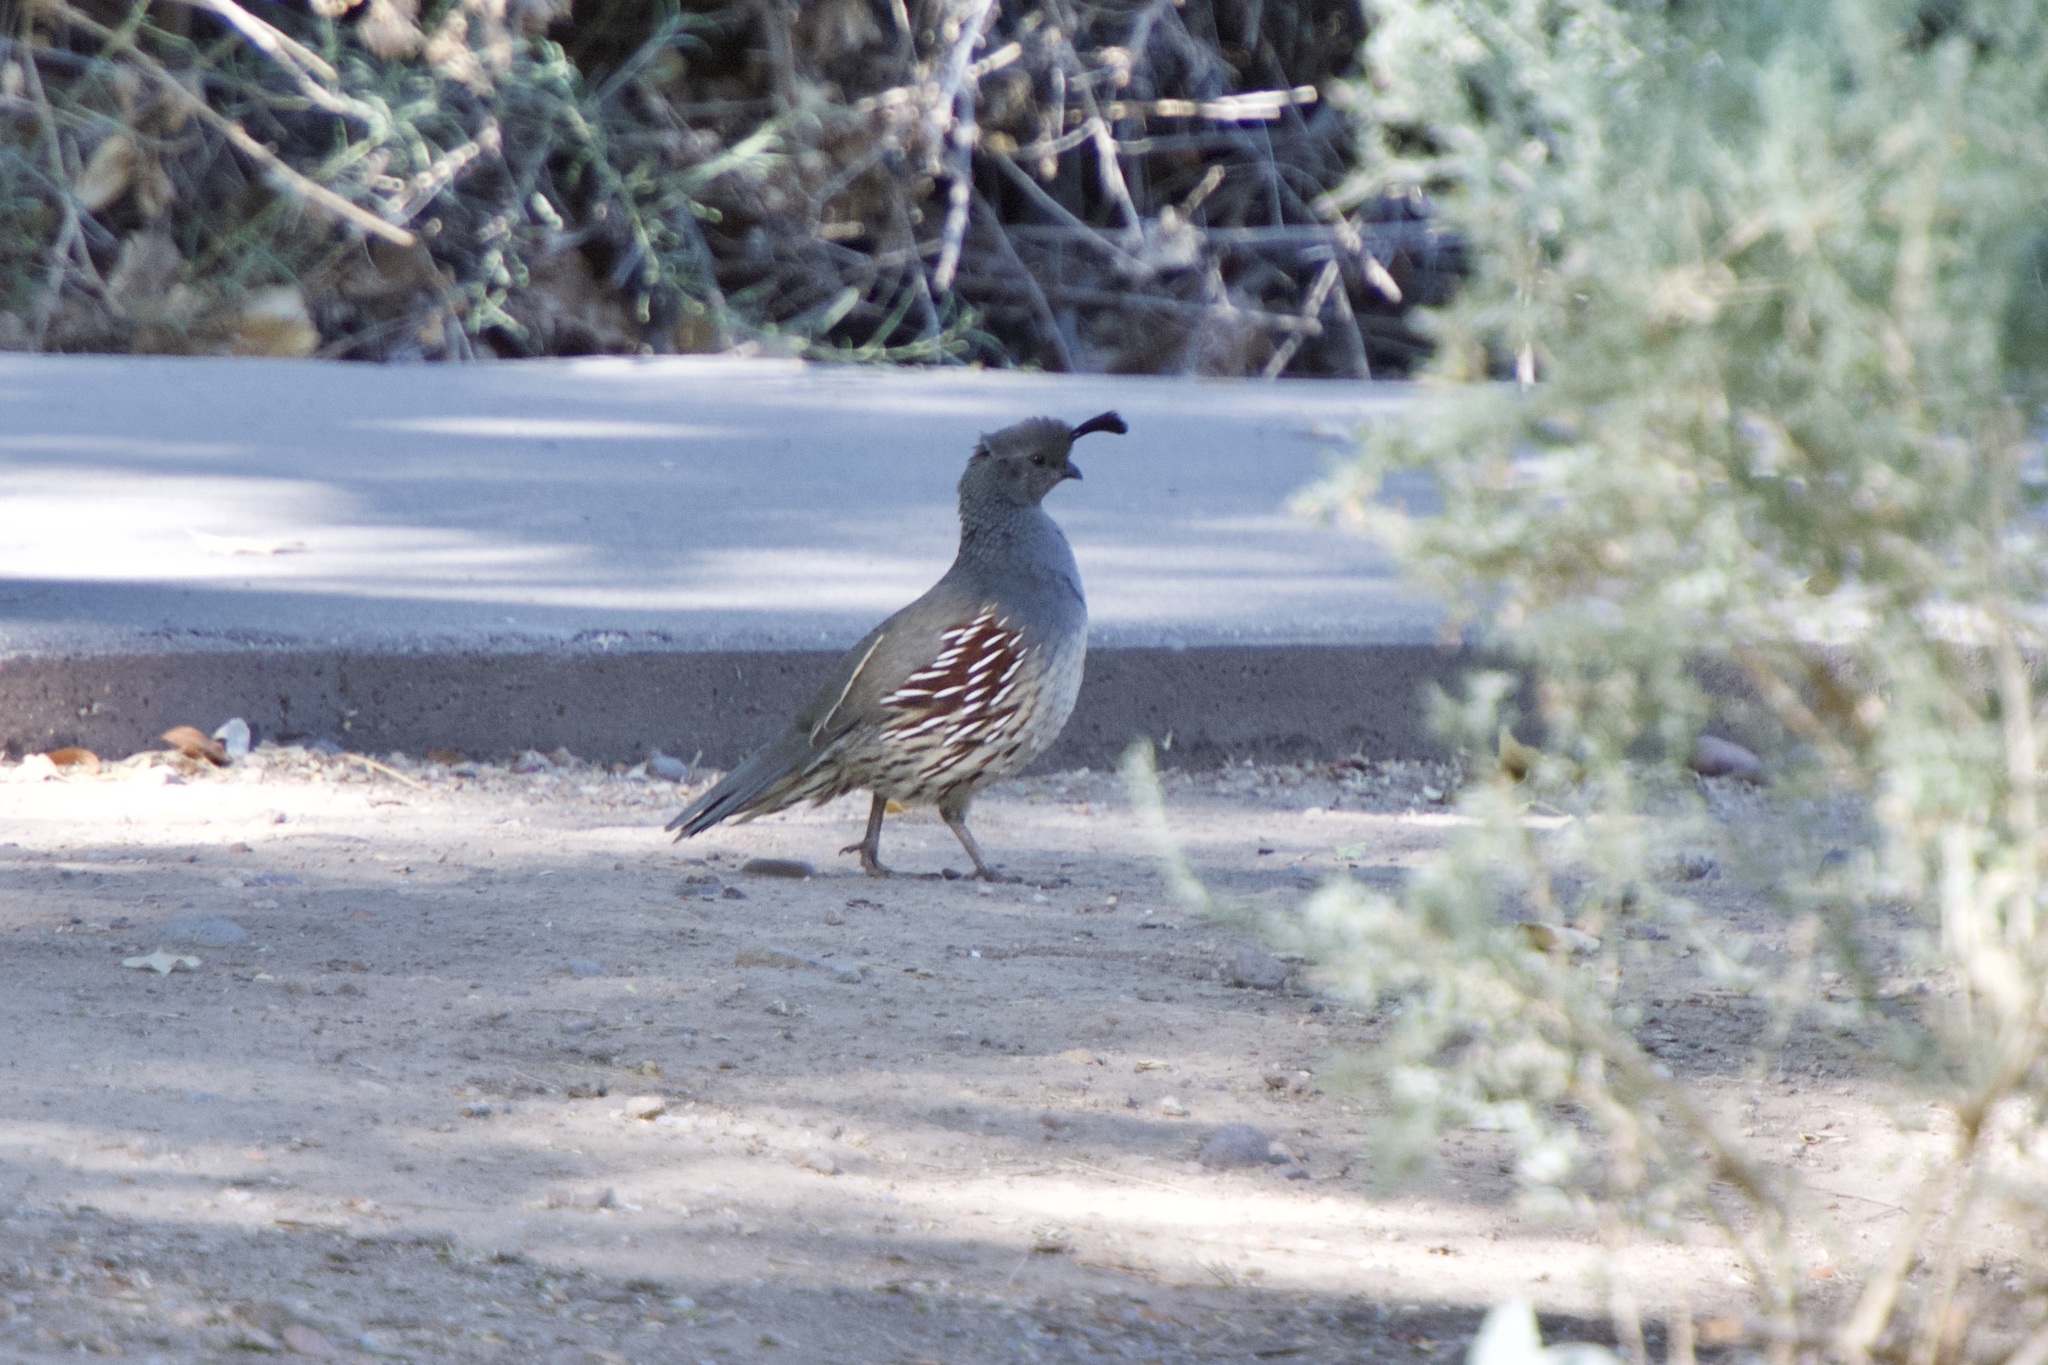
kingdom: Animalia
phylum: Chordata
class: Aves
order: Galliformes
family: Odontophoridae
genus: Callipepla
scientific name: Callipepla gambelii
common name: Gambel's quail
